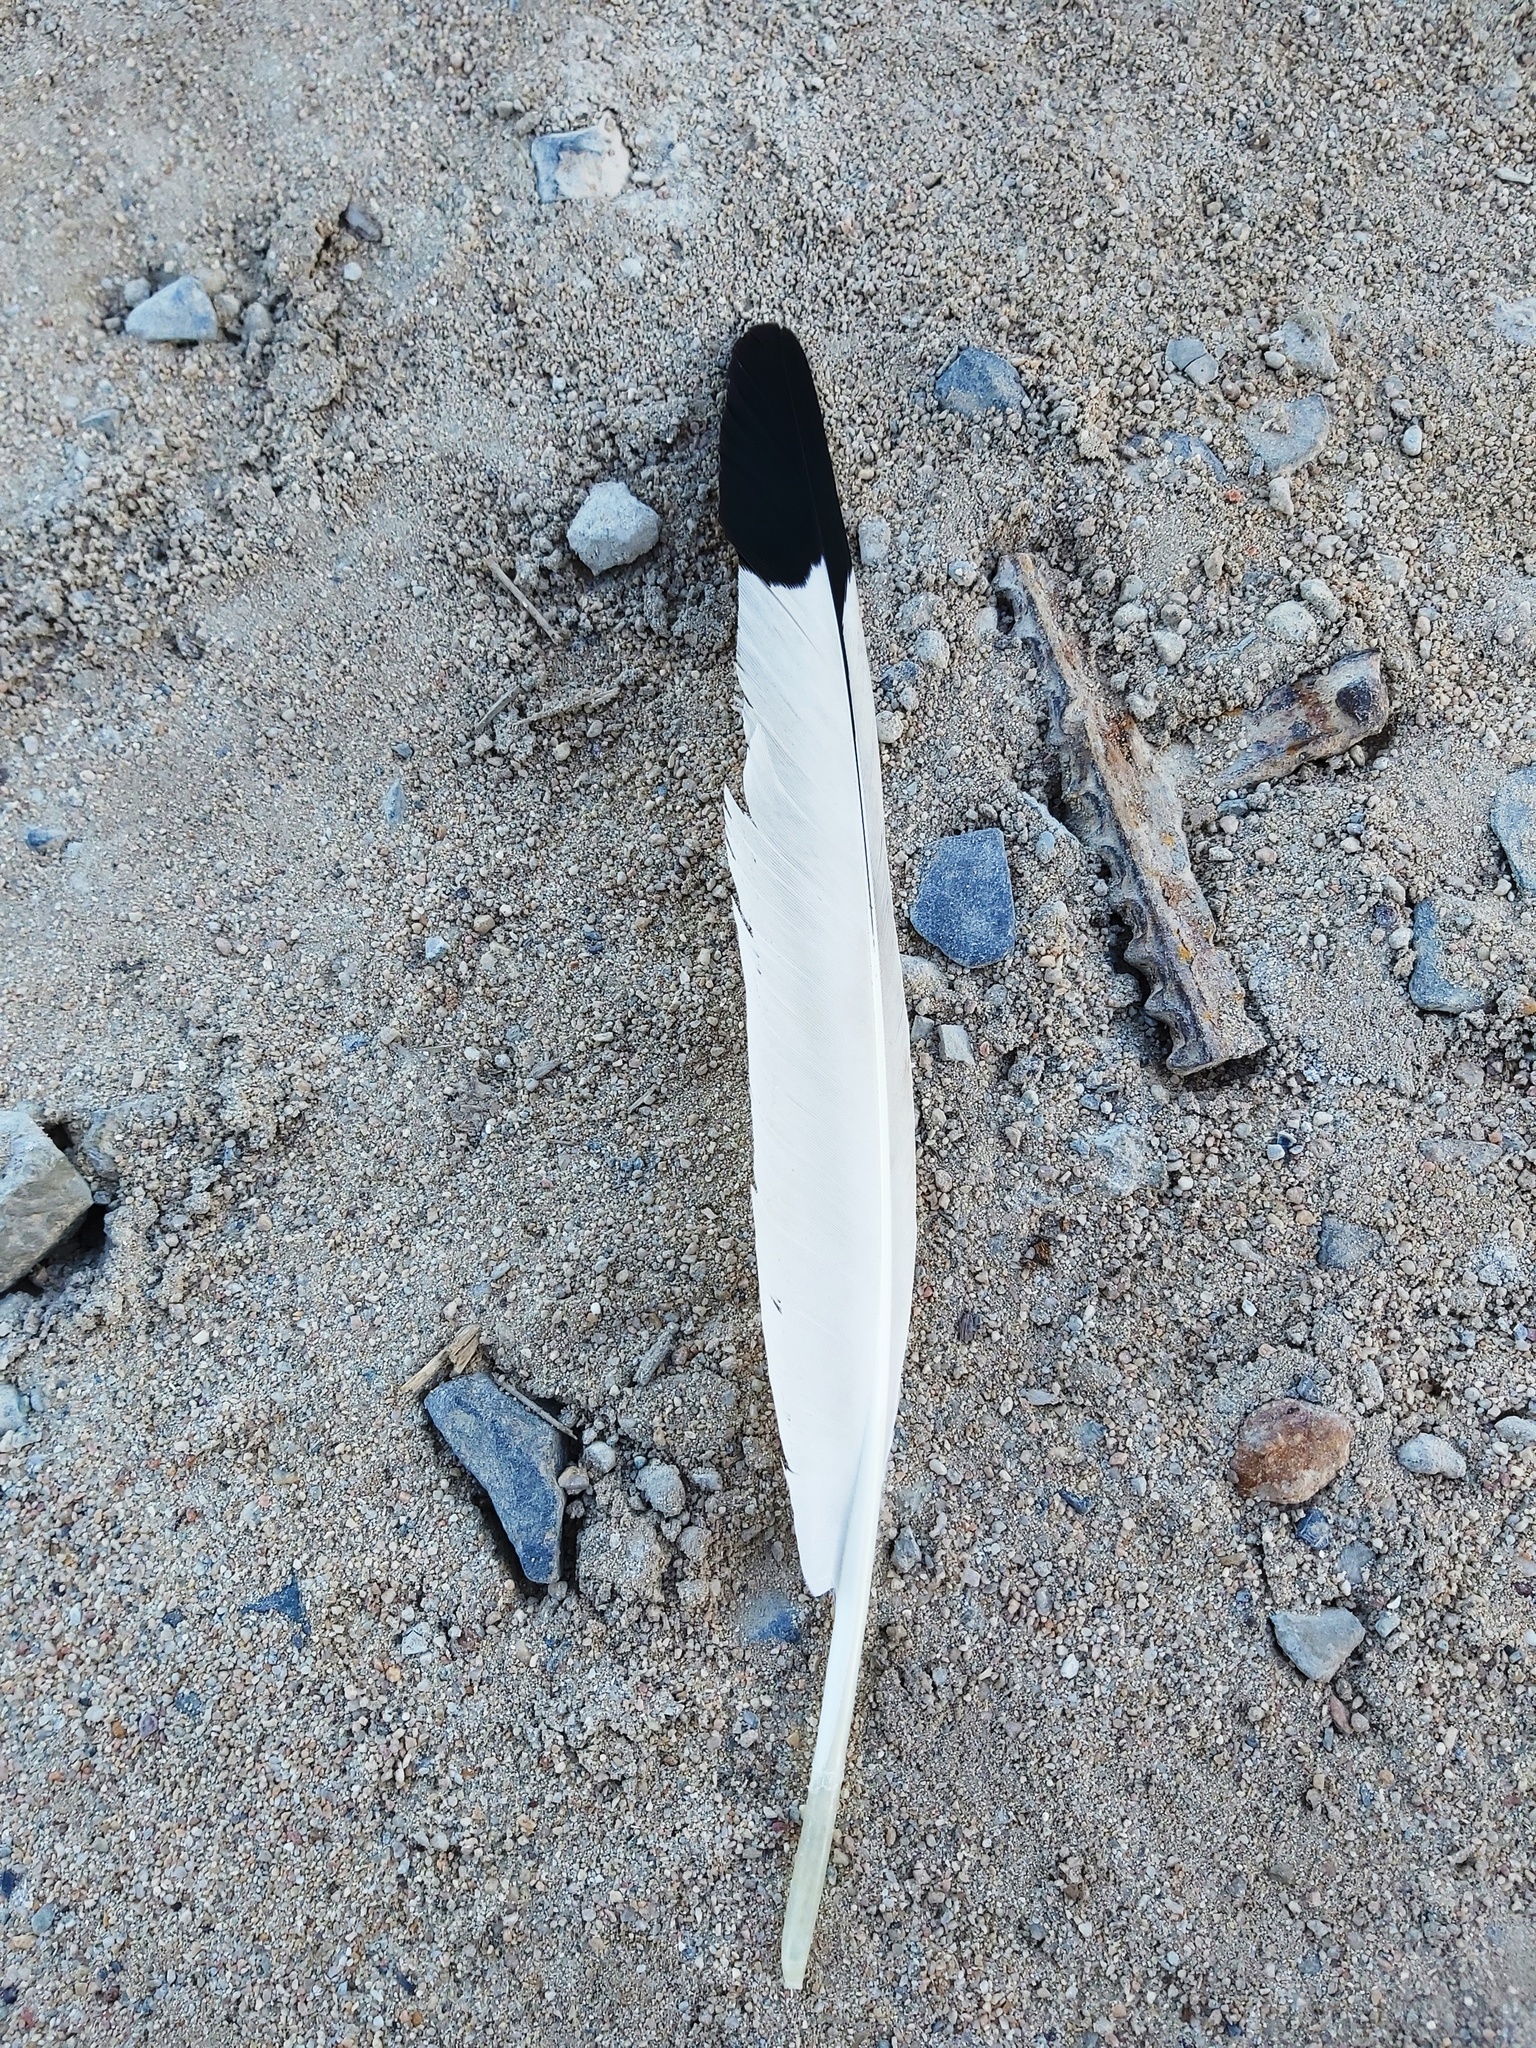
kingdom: Animalia
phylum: Chordata
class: Aves
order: Pelecaniformes
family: Threskiornithidae
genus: Threskiornis
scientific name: Threskiornis aethiopicus
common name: Sacred ibis
